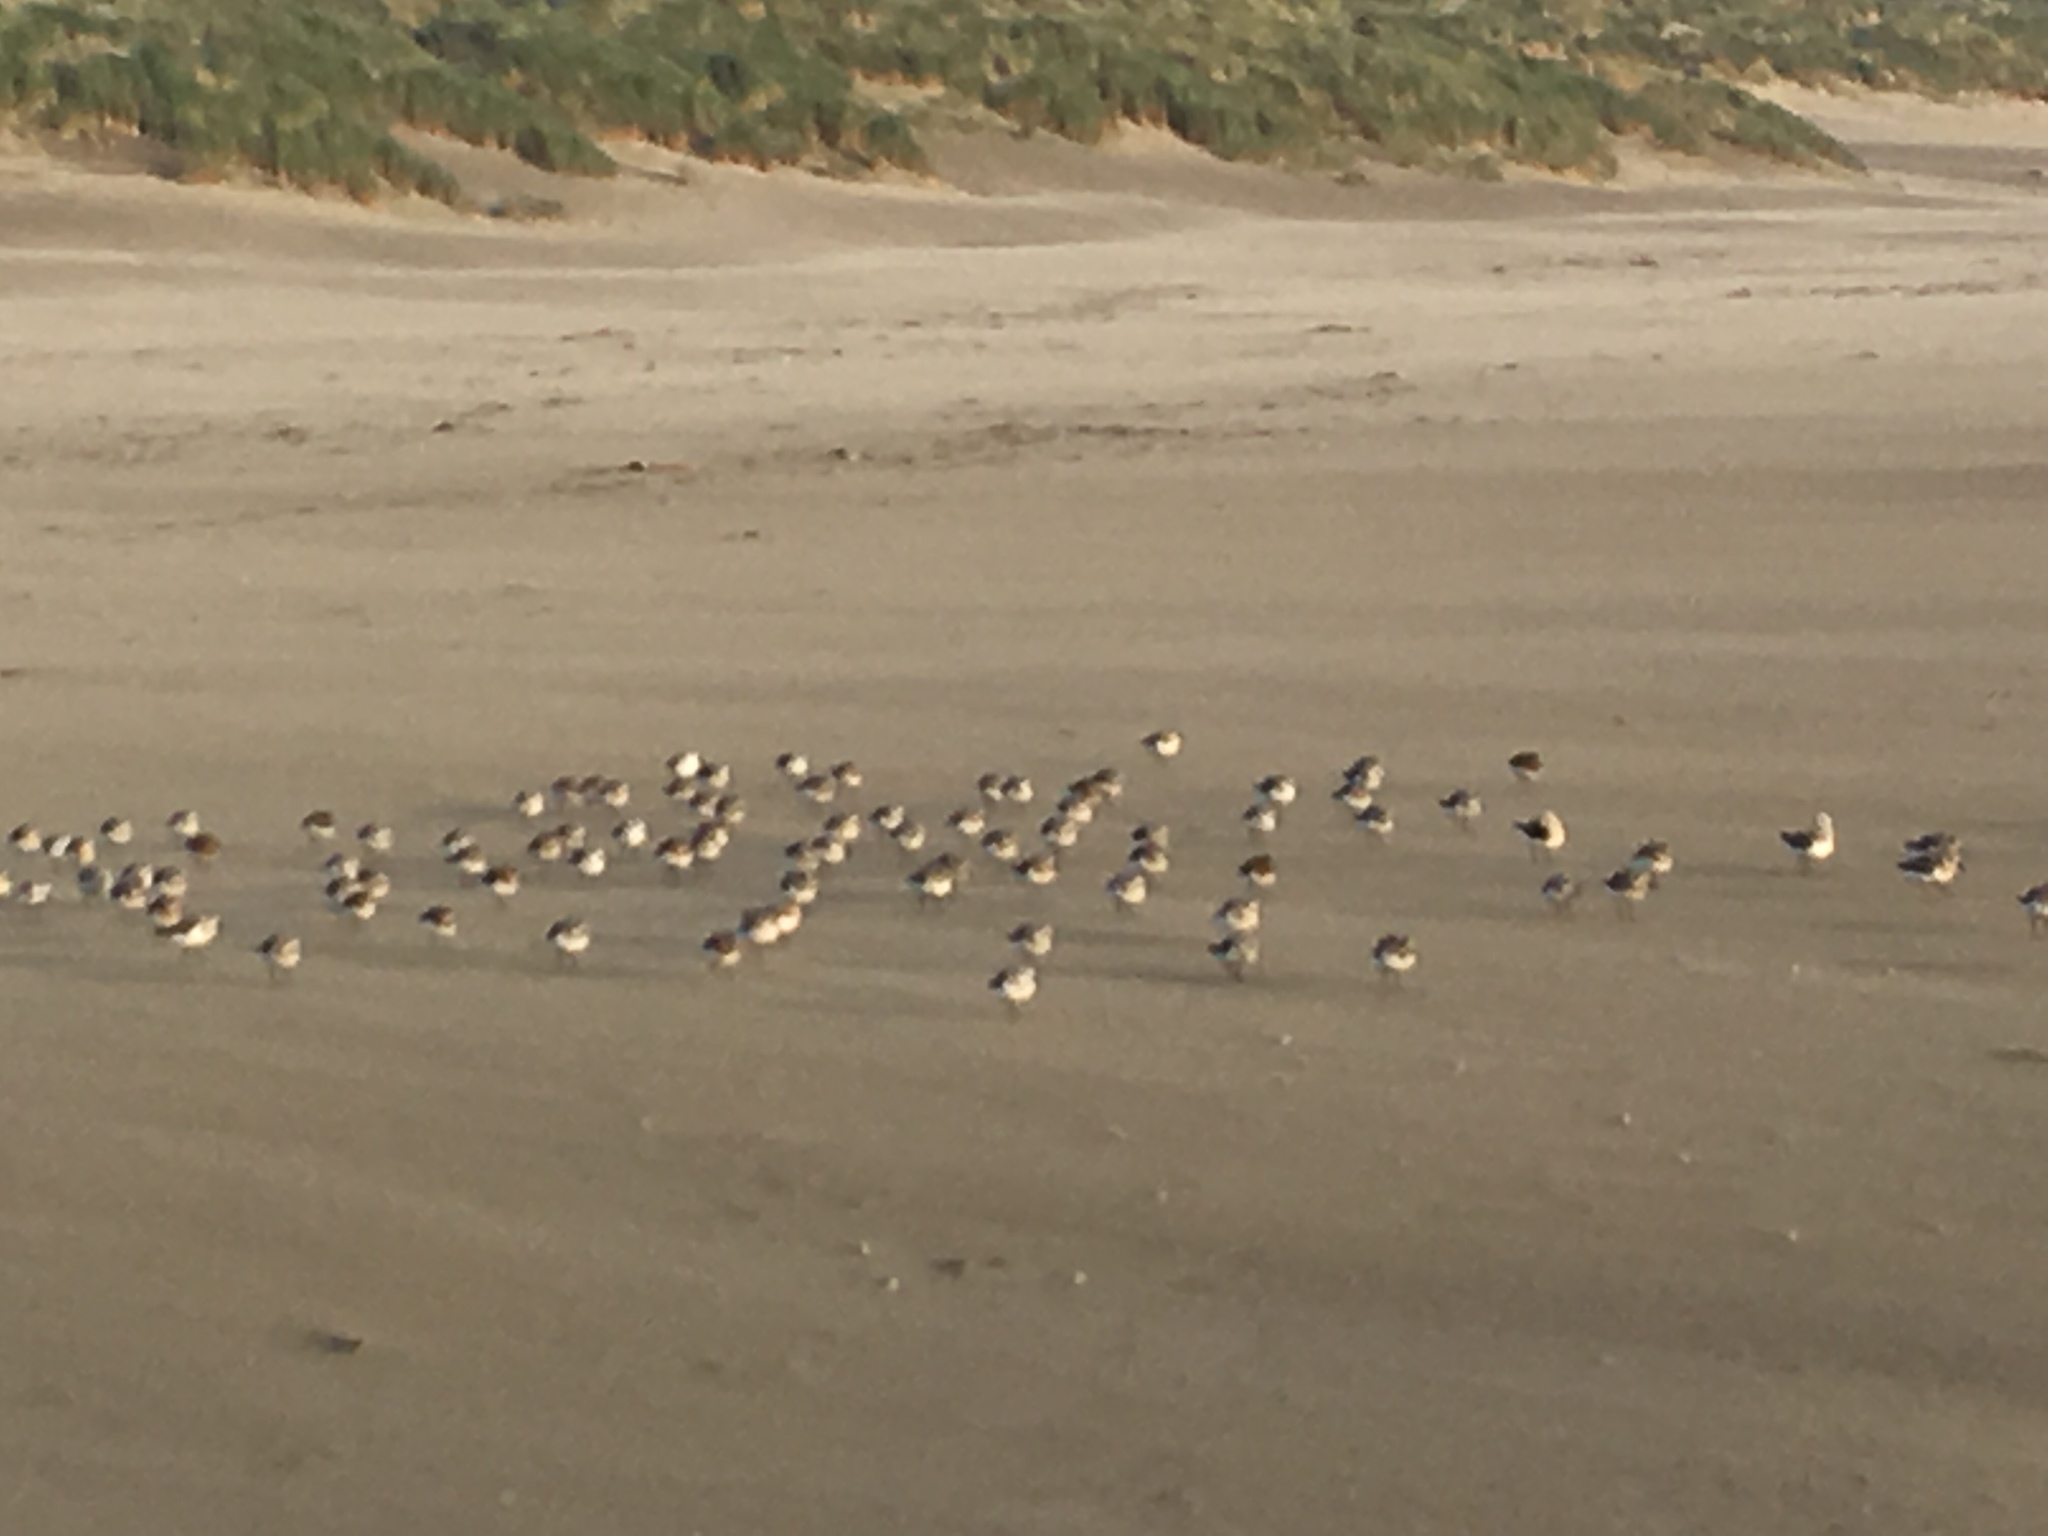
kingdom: Animalia
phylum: Chordata
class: Aves
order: Charadriiformes
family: Scolopacidae
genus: Calidris
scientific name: Calidris alba
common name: Sanderling
